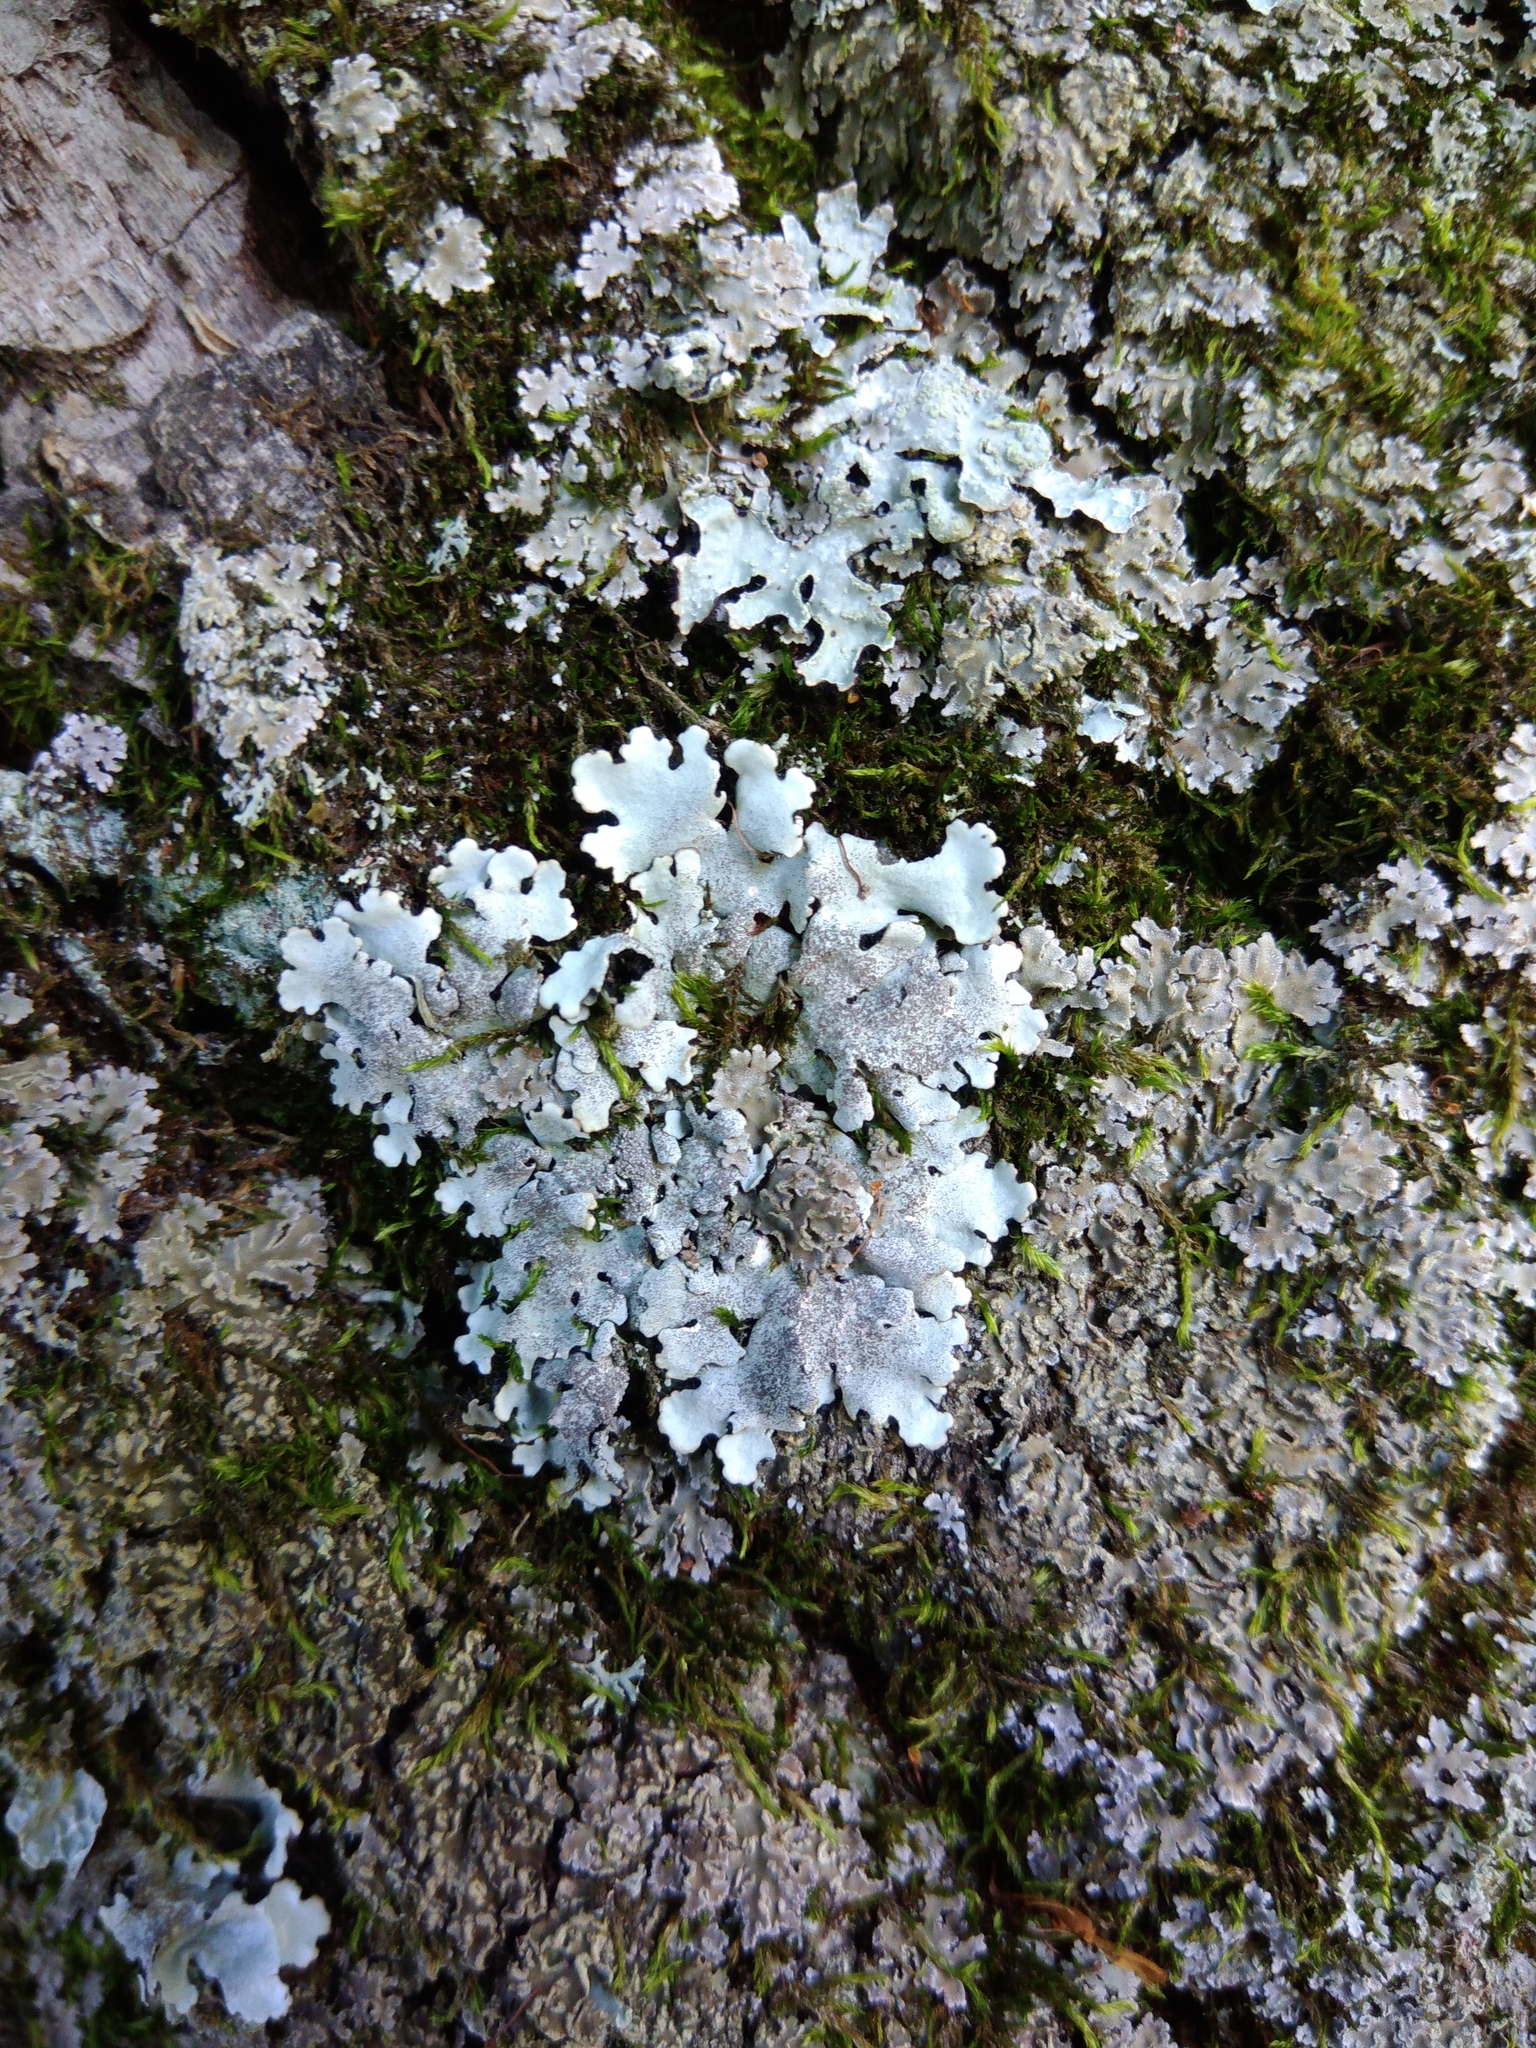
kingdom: Fungi
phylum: Ascomycota
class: Lecanoromycetes
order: Lecanorales
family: Parmeliaceae
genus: Parmelina
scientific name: Parmelina tiliacea
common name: Linden shield lichen
